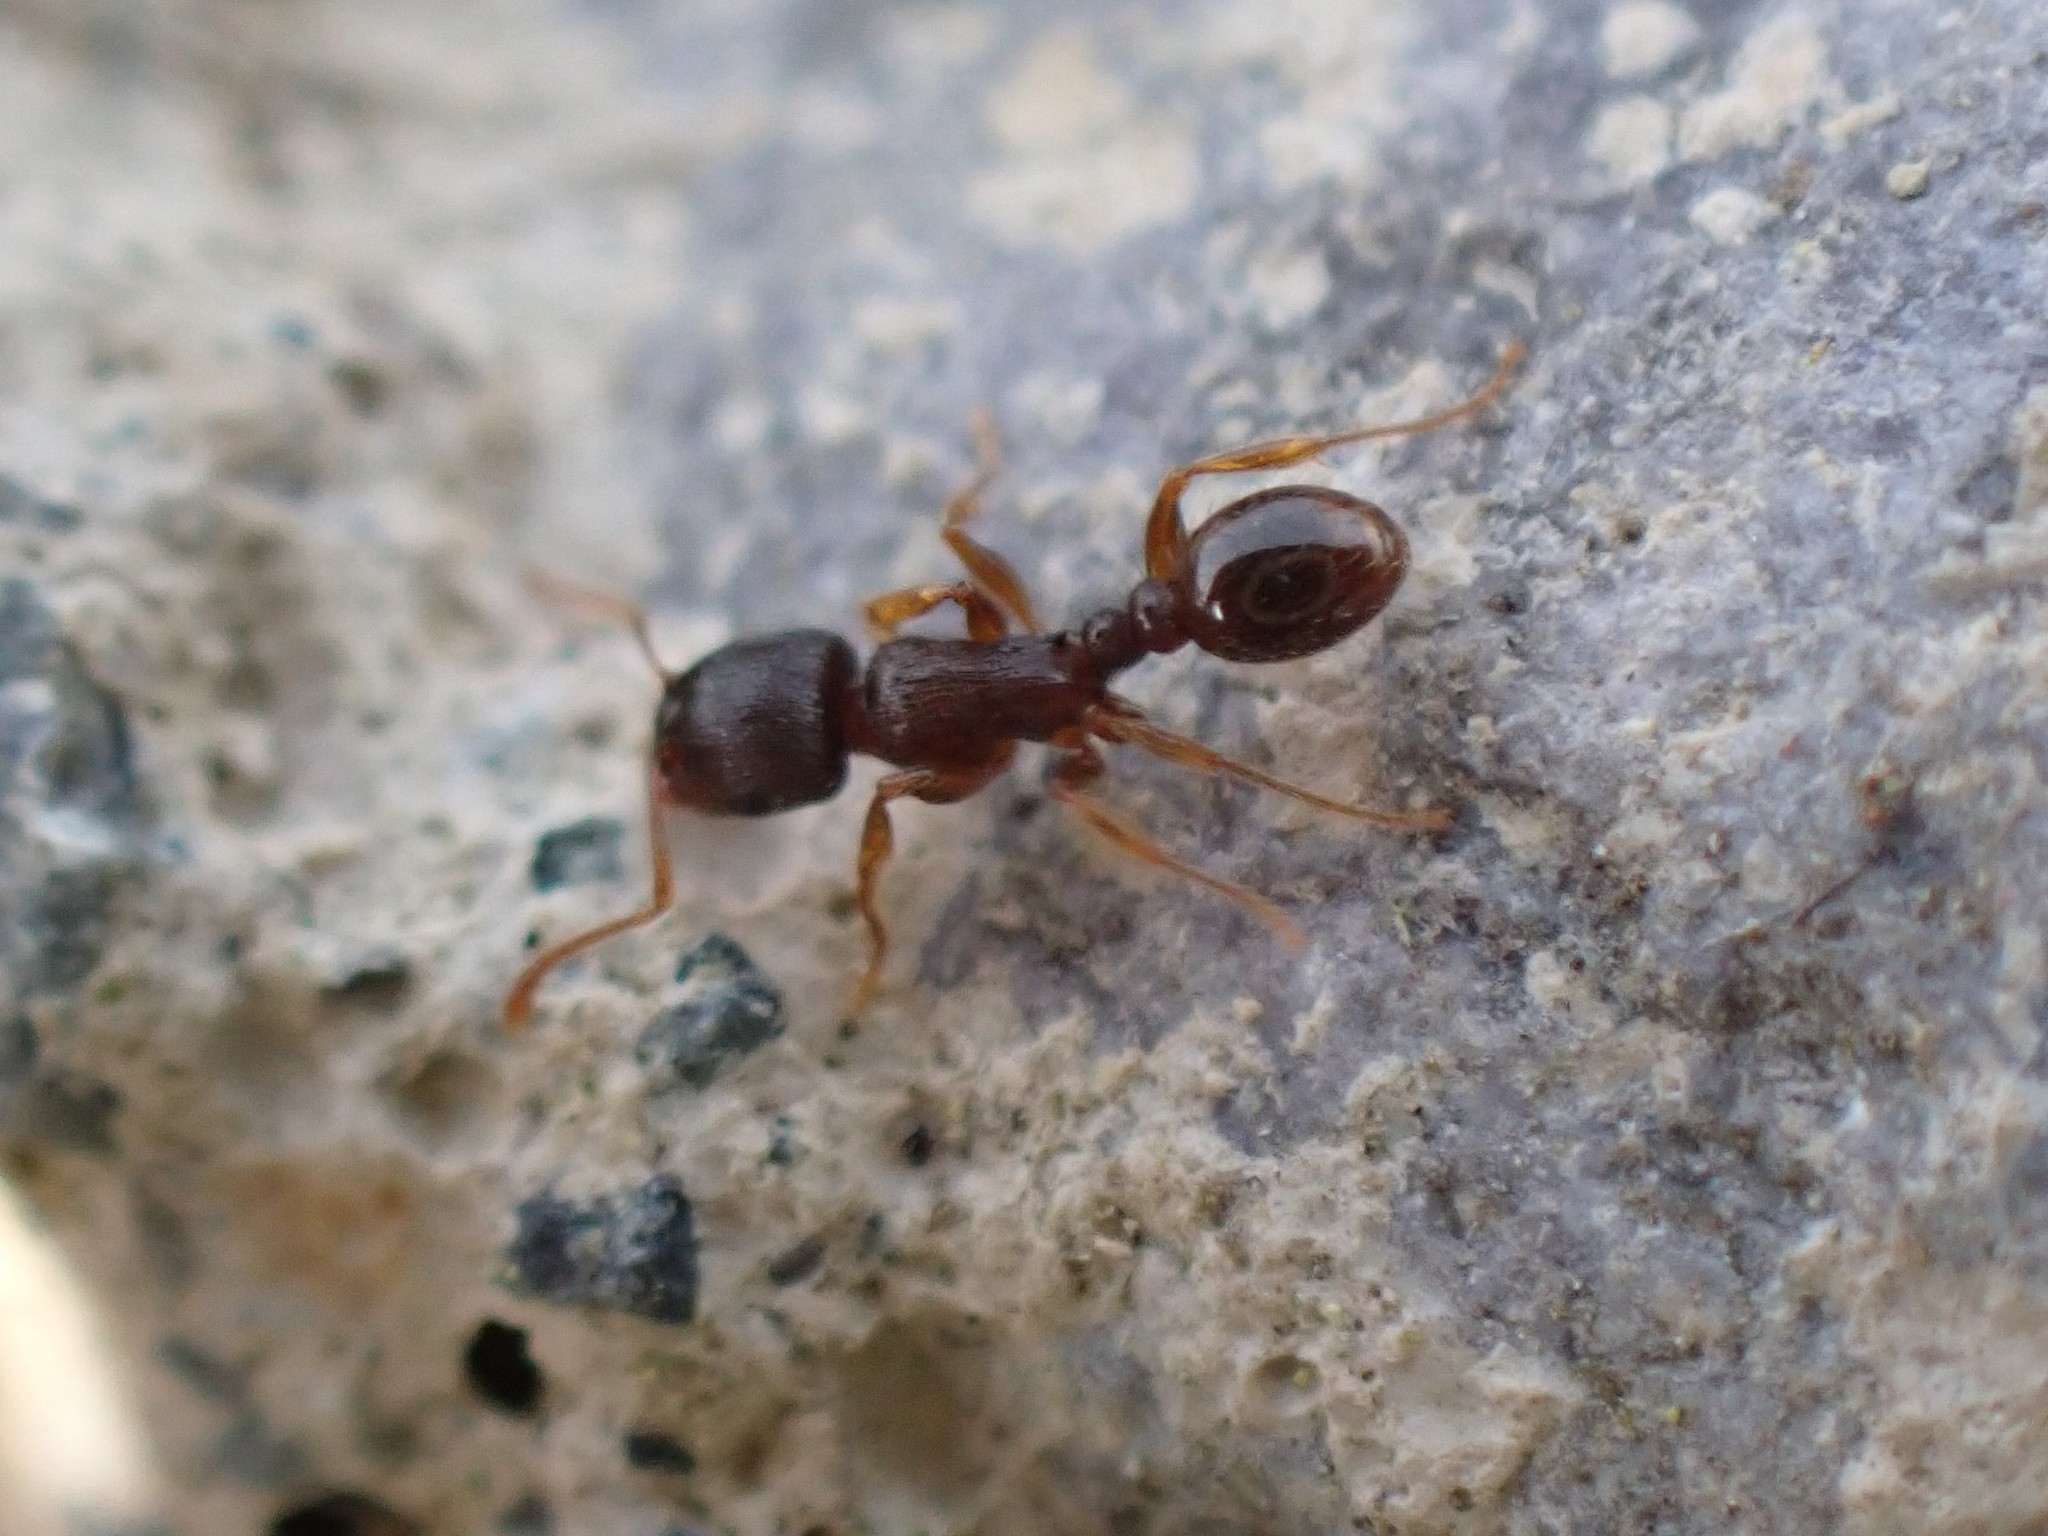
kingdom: Animalia
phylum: Arthropoda
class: Insecta
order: Hymenoptera
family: Formicidae
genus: Tetramorium
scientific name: Tetramorium immigrans
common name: Pavement ant
